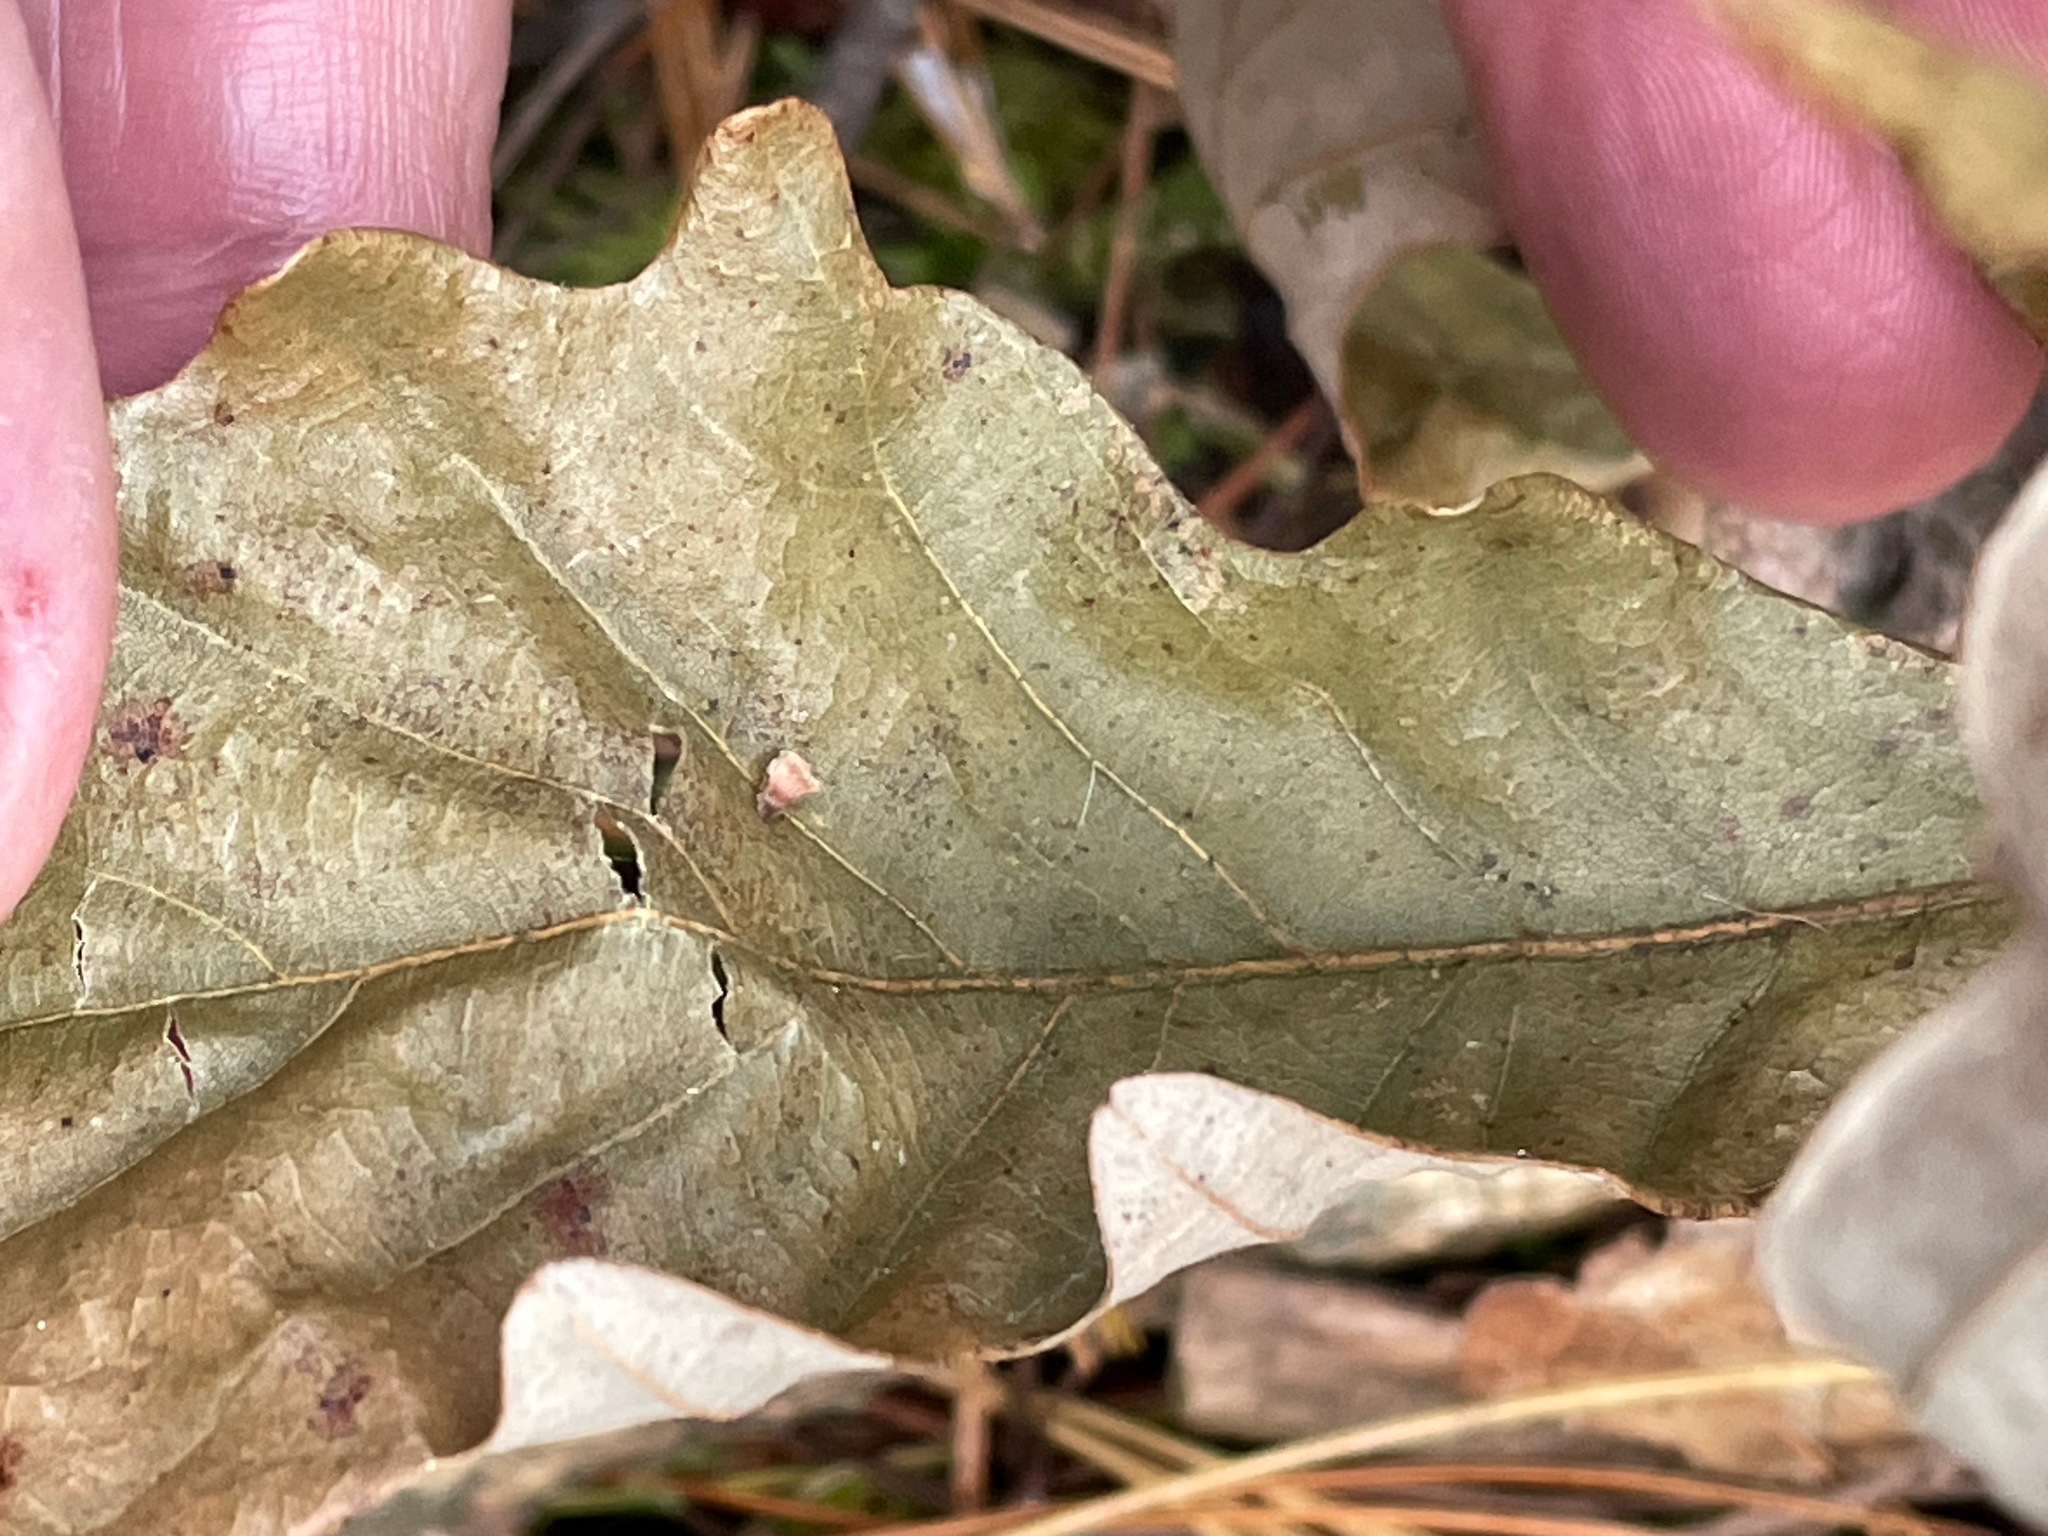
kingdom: Plantae
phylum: Tracheophyta
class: Magnoliopsida
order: Fagales
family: Fagaceae
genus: Quercus
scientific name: Quercus bicolor
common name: Swamp white oak
